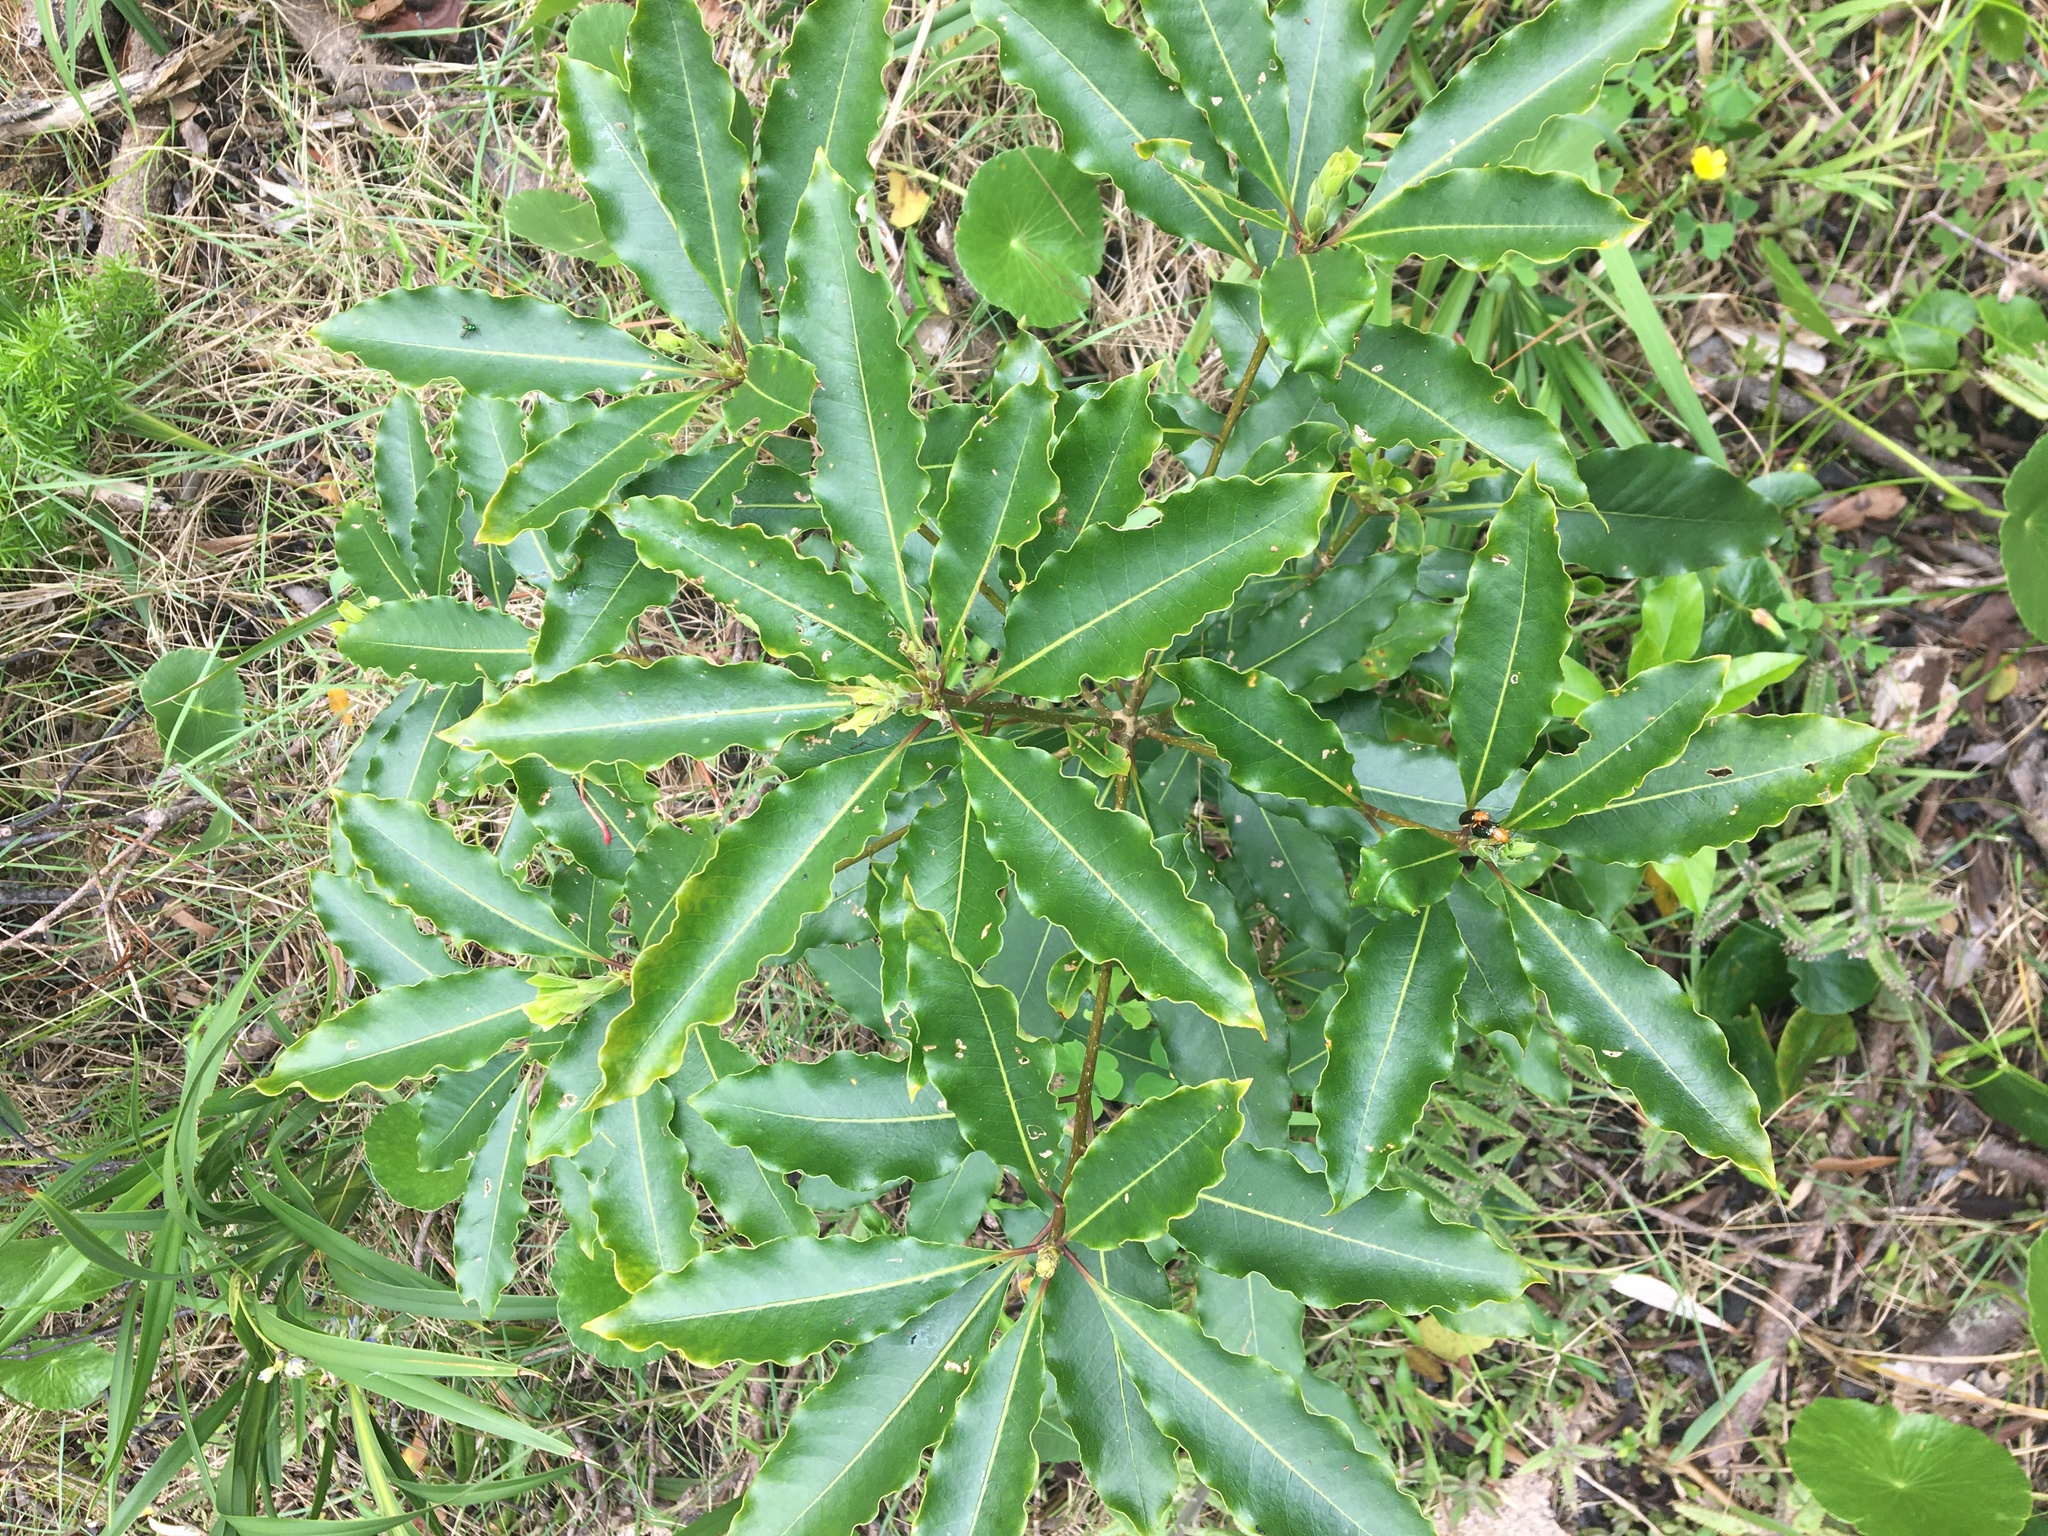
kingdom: Plantae
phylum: Tracheophyta
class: Magnoliopsida
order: Apiales
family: Pittosporaceae
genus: Pittosporum
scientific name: Pittosporum undulatum
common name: Australian cheesewood
